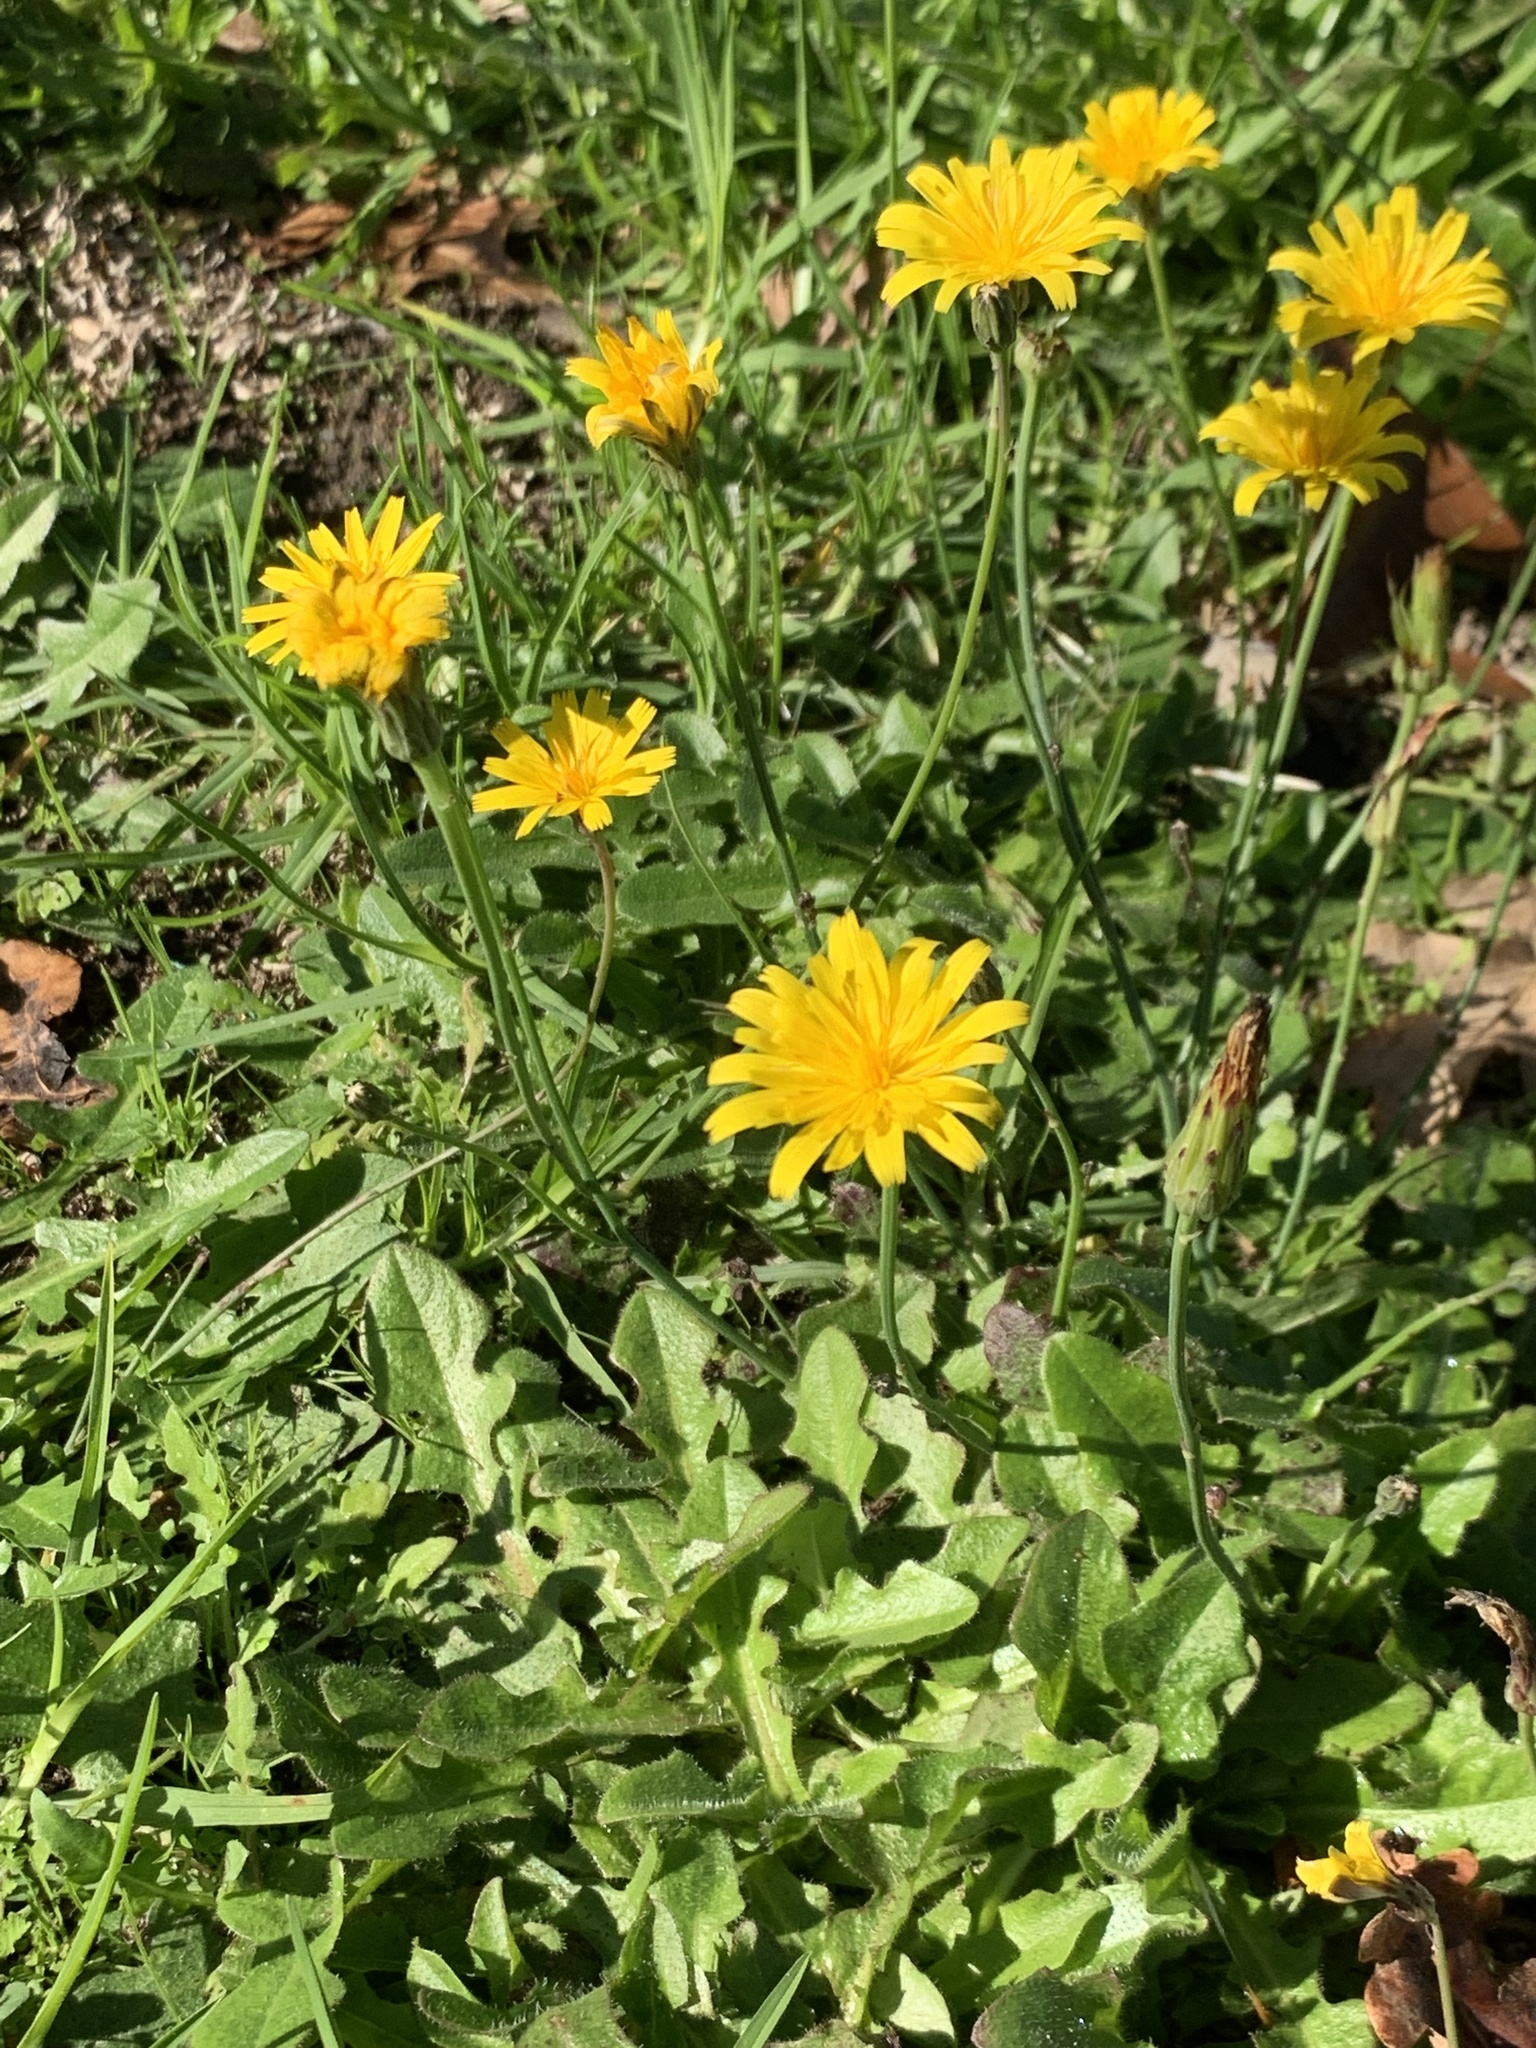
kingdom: Plantae
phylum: Tracheophyta
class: Magnoliopsida
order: Asterales
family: Asteraceae
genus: Hypochaeris
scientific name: Hypochaeris radicata
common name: Flatweed
